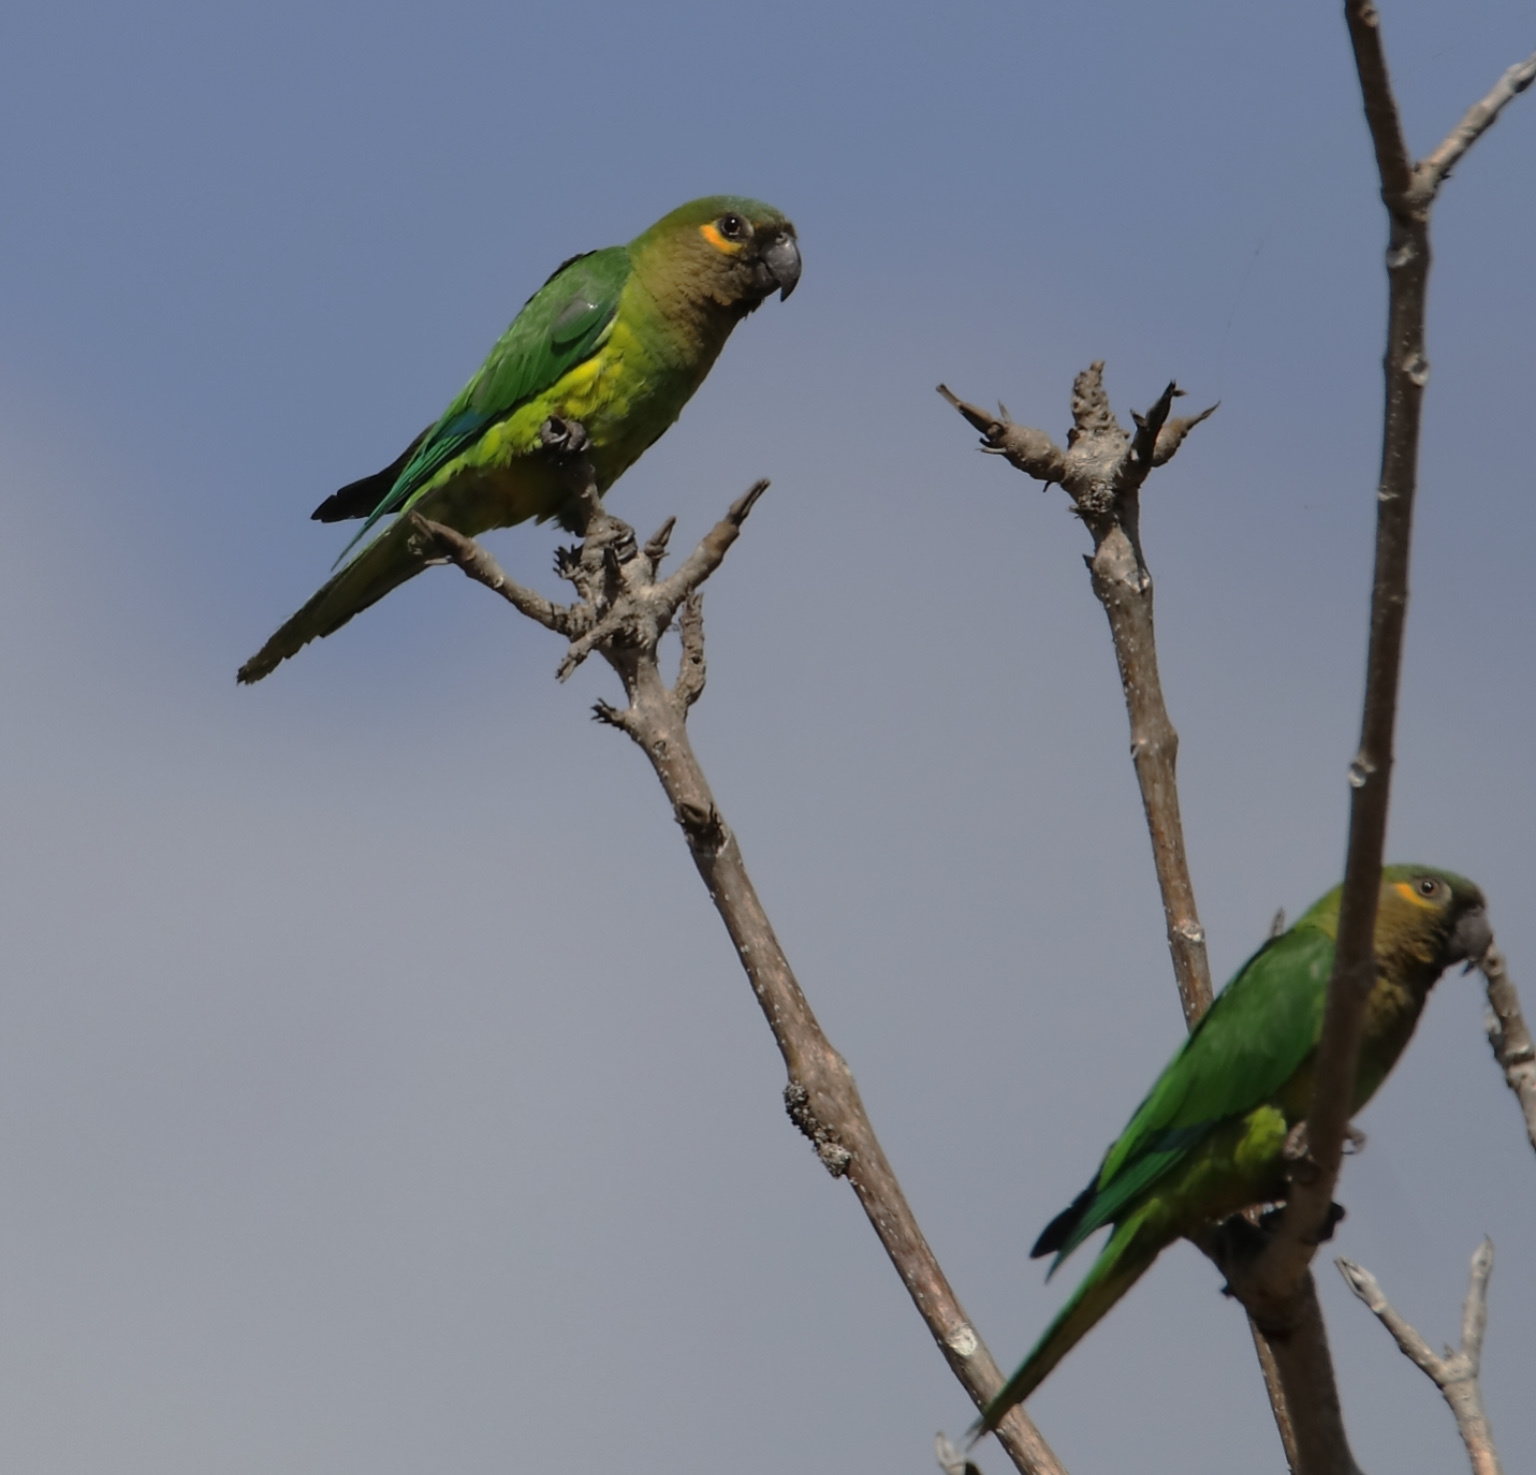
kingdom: Animalia
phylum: Chordata
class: Aves
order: Psittaciformes
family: Psittacidae
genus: Aratinga
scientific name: Aratinga pertinax
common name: Brown-throated parakeet
